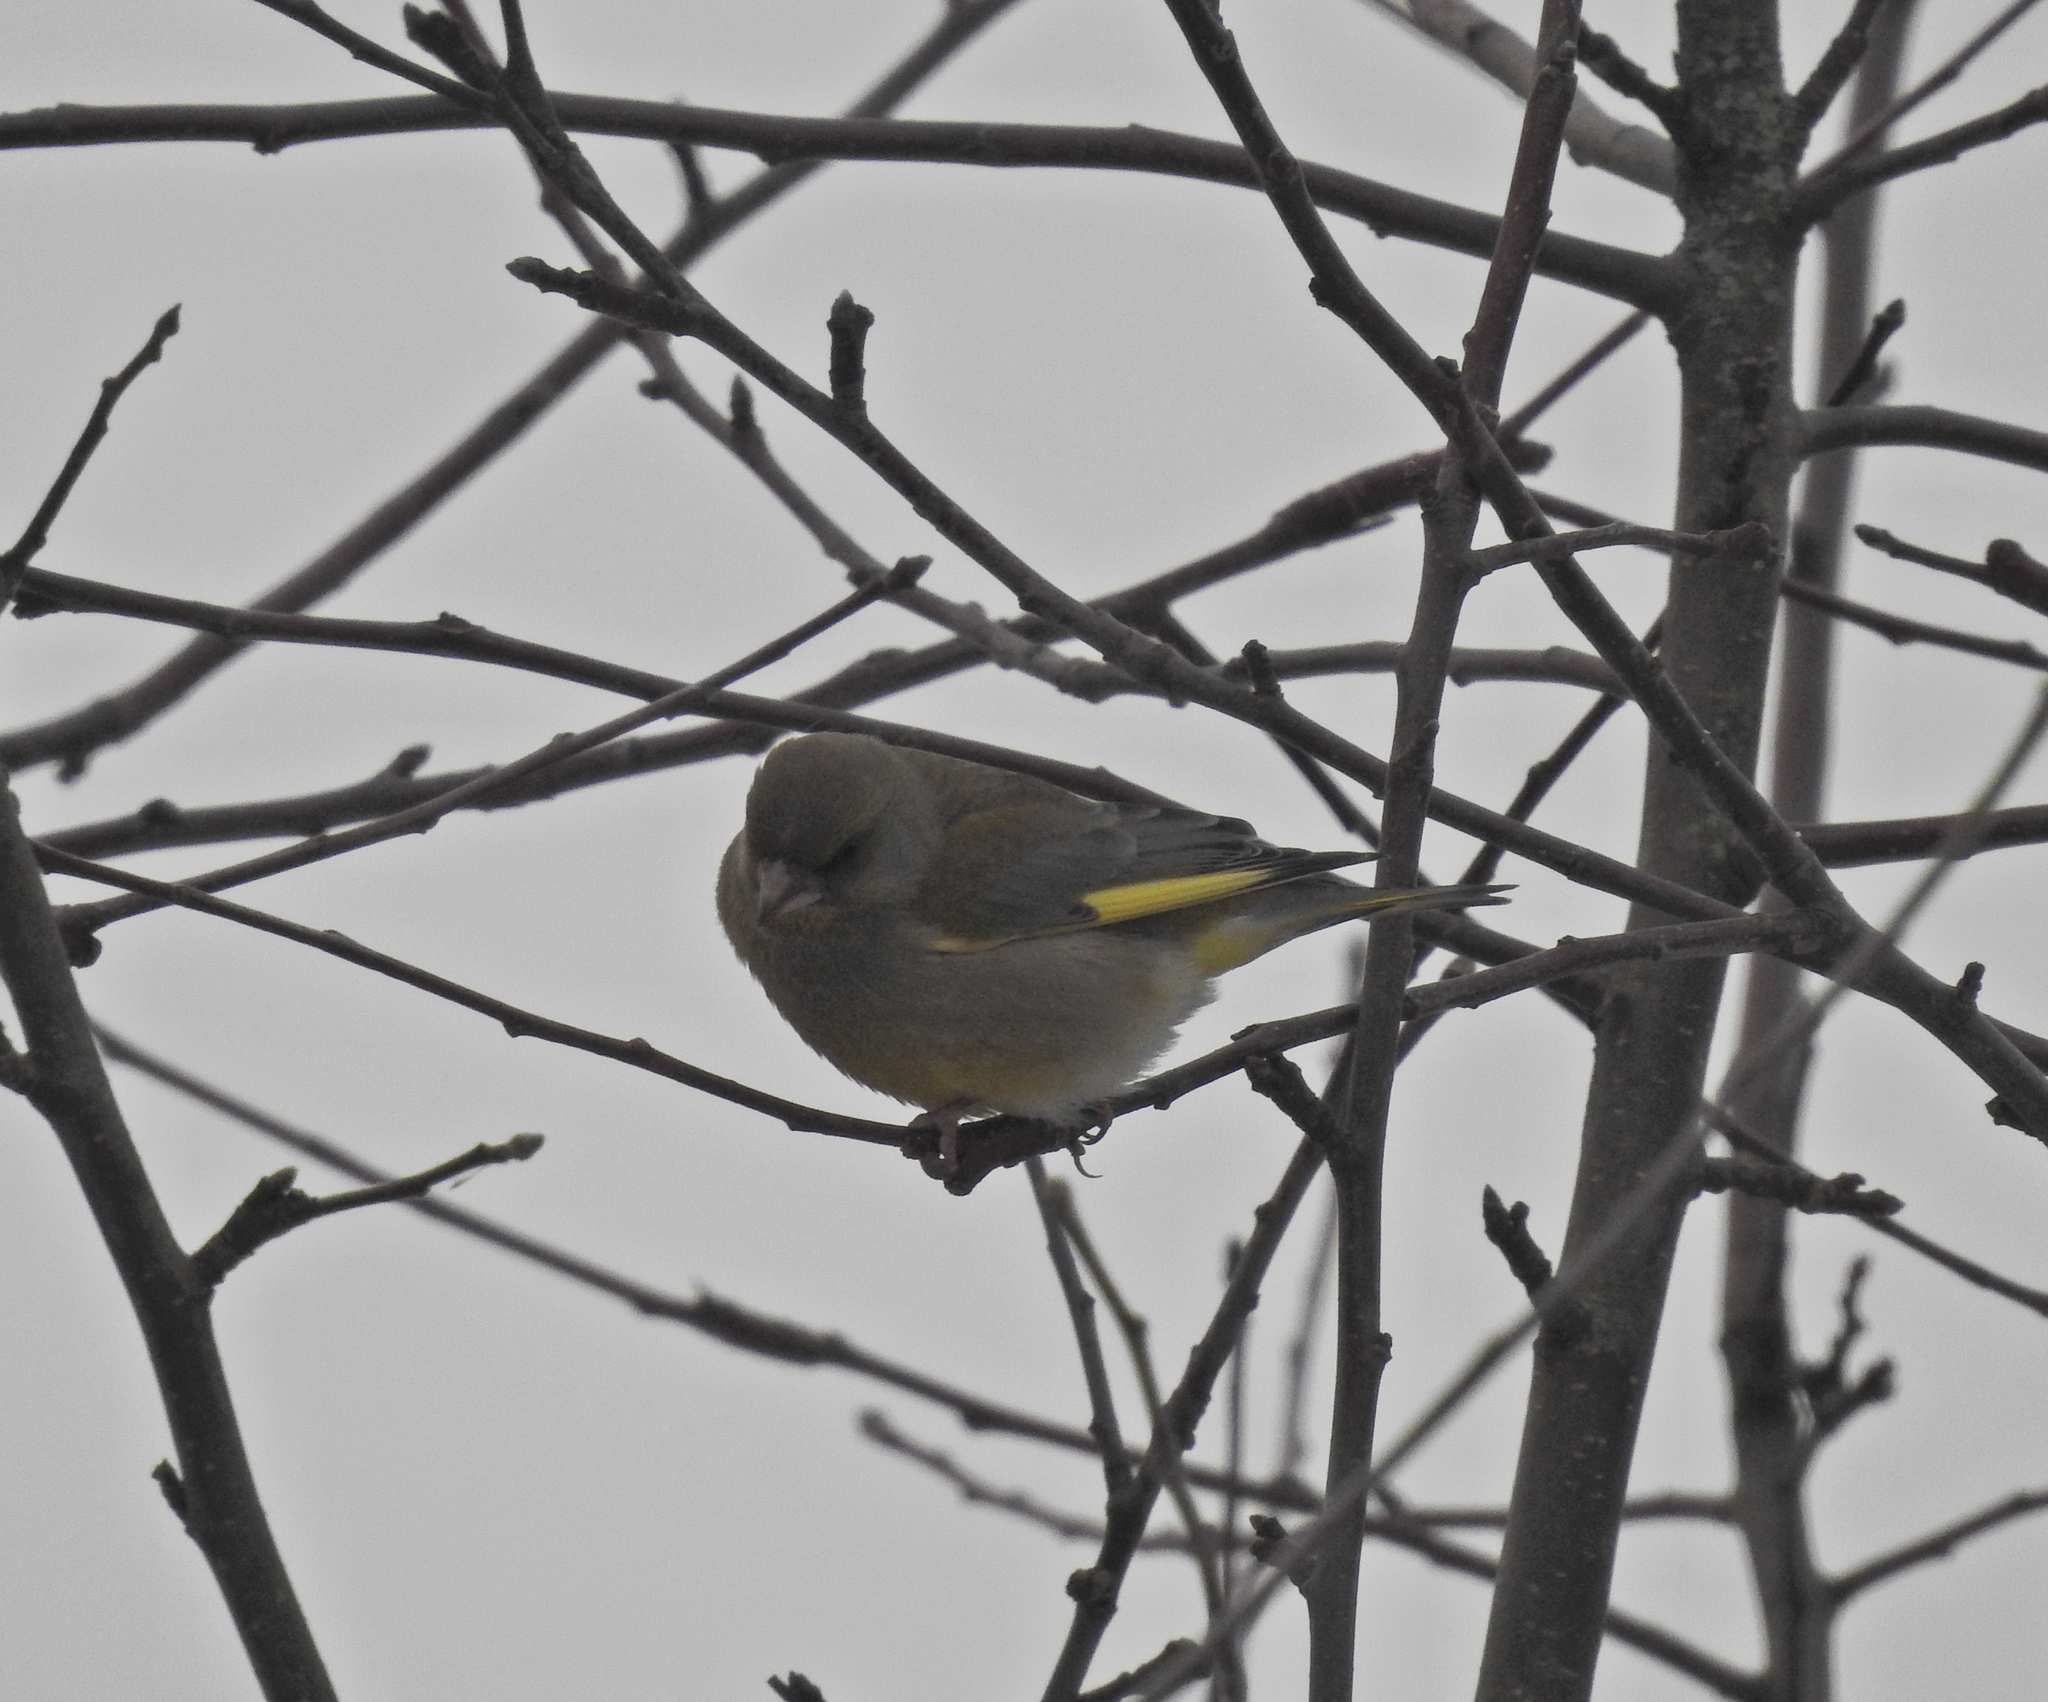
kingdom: Plantae
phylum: Tracheophyta
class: Liliopsida
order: Poales
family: Poaceae
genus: Chloris
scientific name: Chloris chloris
